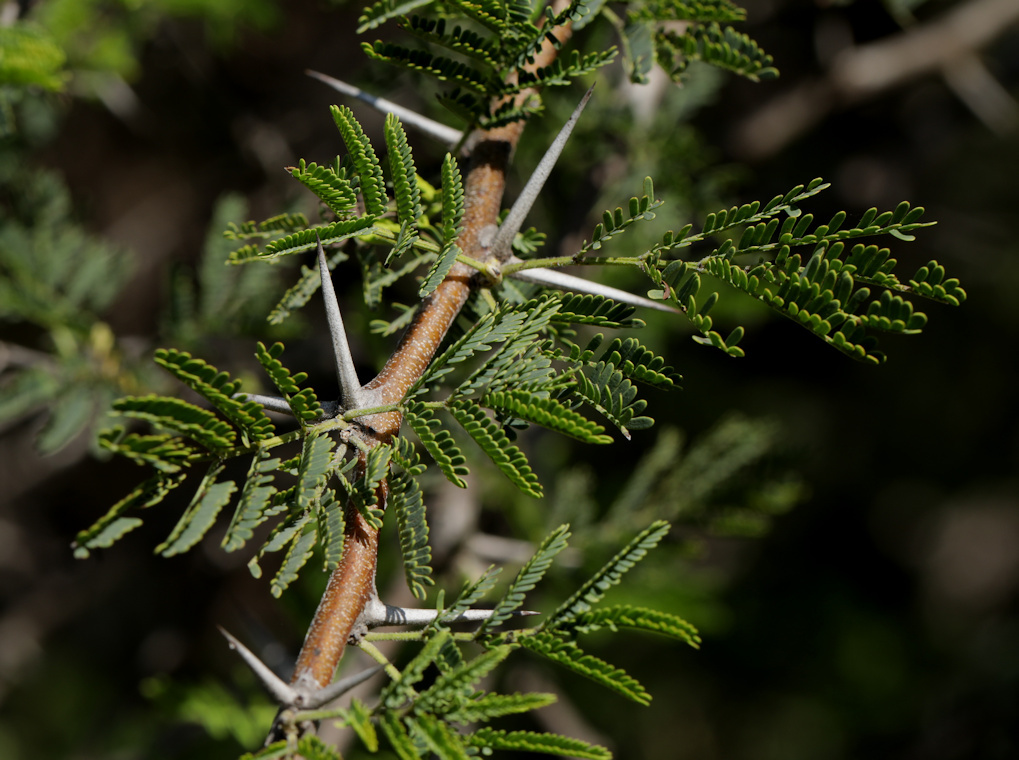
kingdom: Plantae
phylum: Tracheophyta
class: Magnoliopsida
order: Fabales
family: Fabaceae
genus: Vachellia
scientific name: Vachellia nilotica
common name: Arabic gumtree
